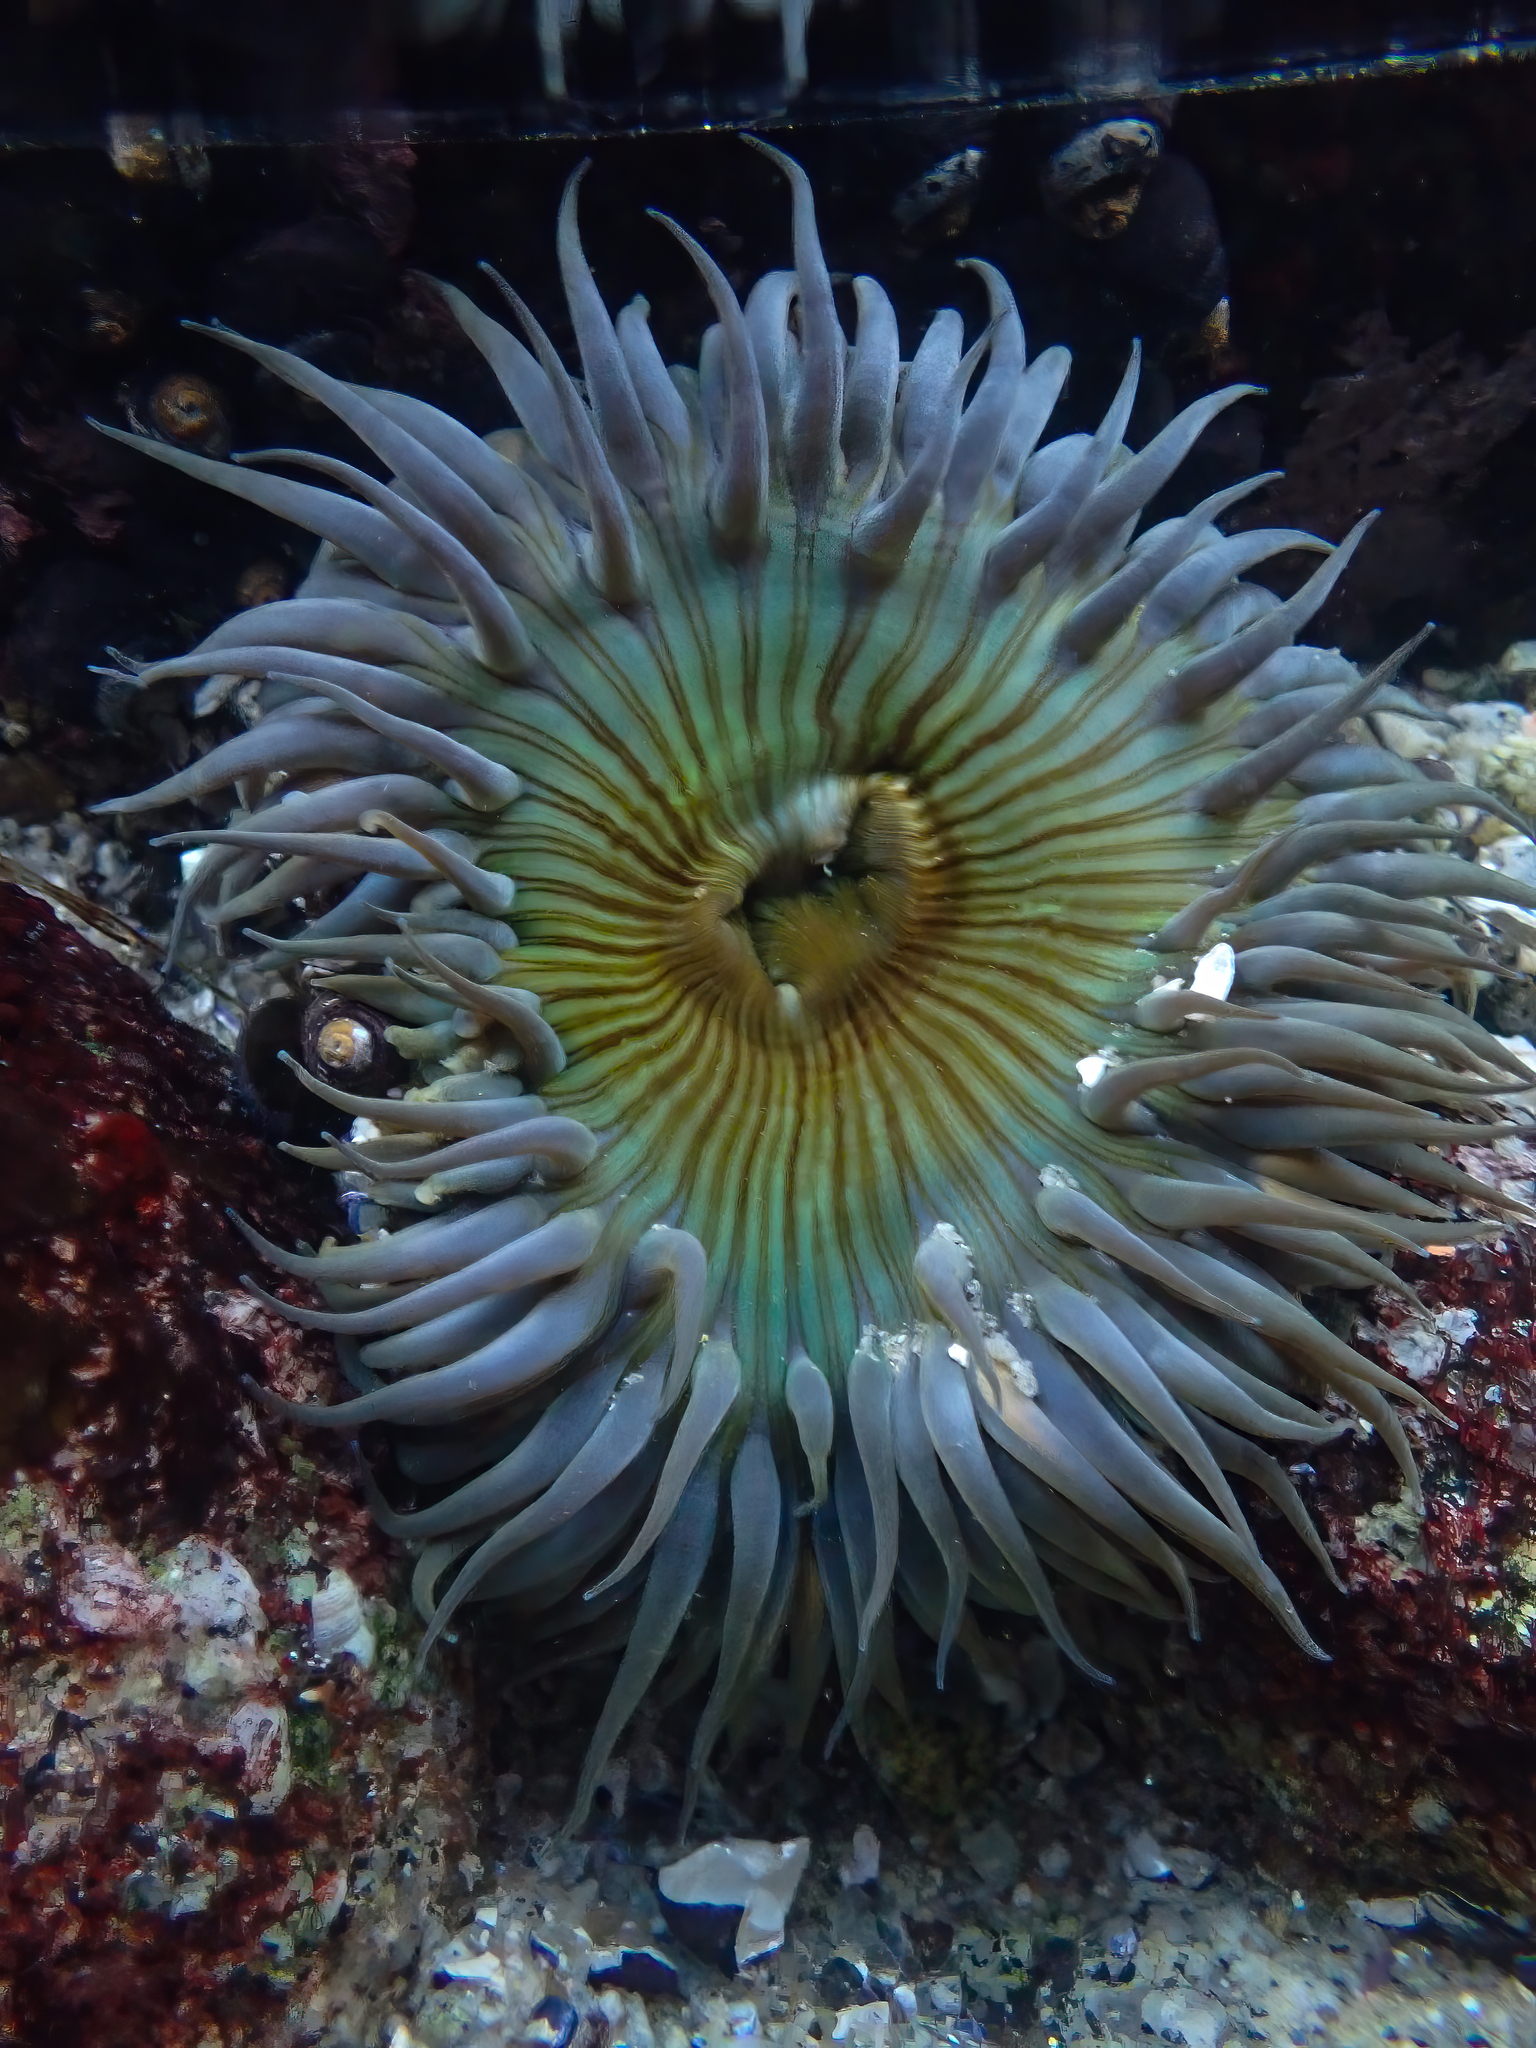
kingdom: Animalia
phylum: Cnidaria
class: Anthozoa
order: Actiniaria
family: Actiniidae
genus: Anthopleura
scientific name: Anthopleura sola
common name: Sun anemone
